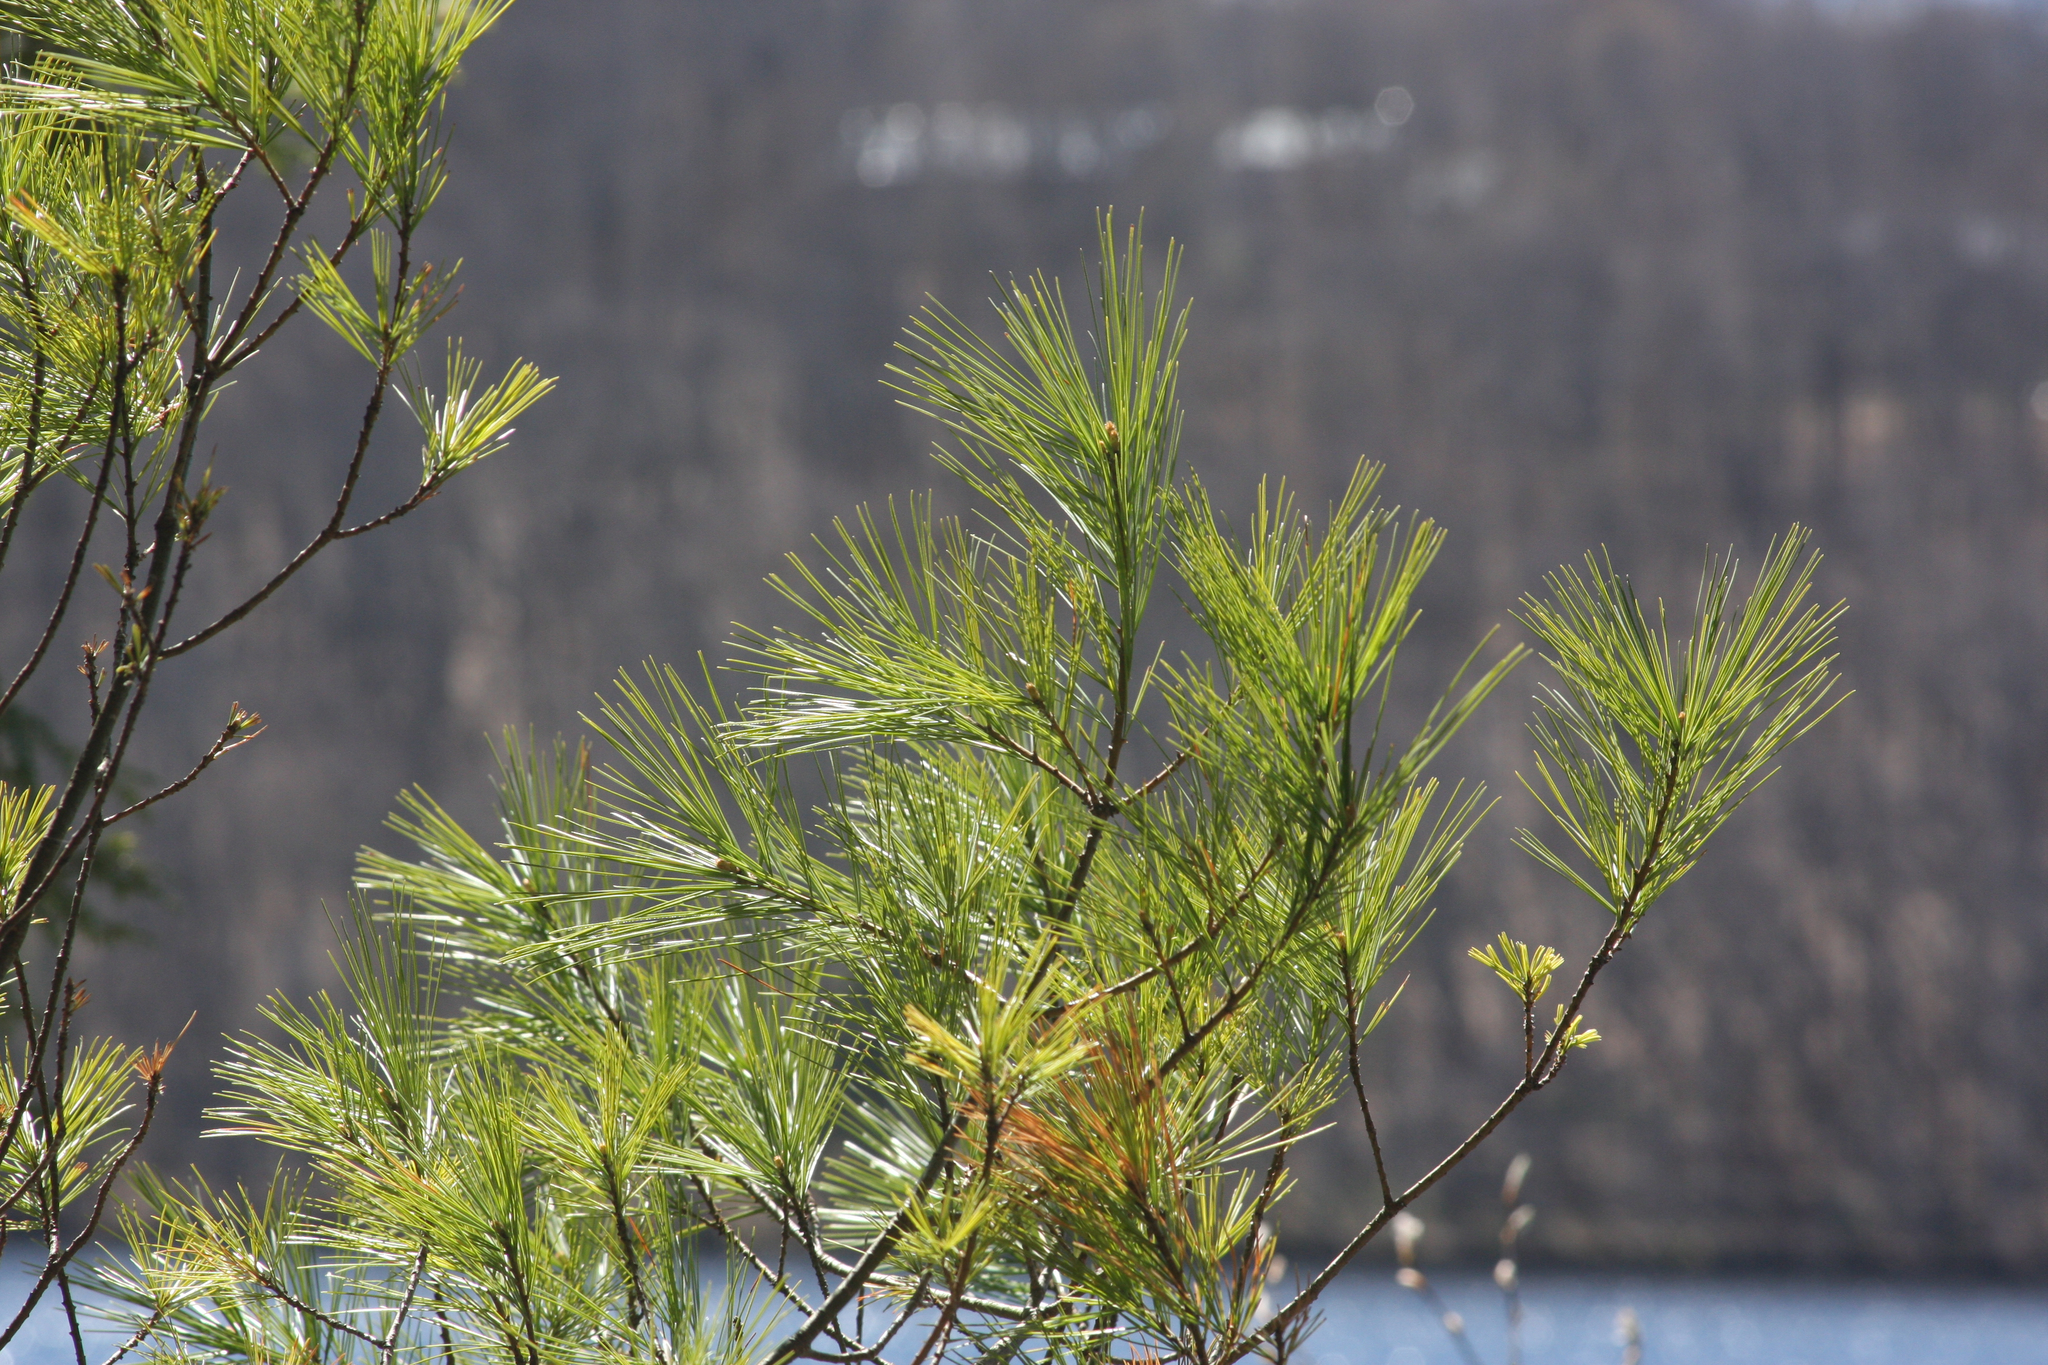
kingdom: Plantae
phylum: Tracheophyta
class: Pinopsida
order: Pinales
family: Pinaceae
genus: Pinus
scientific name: Pinus strobus
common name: Weymouth pine
